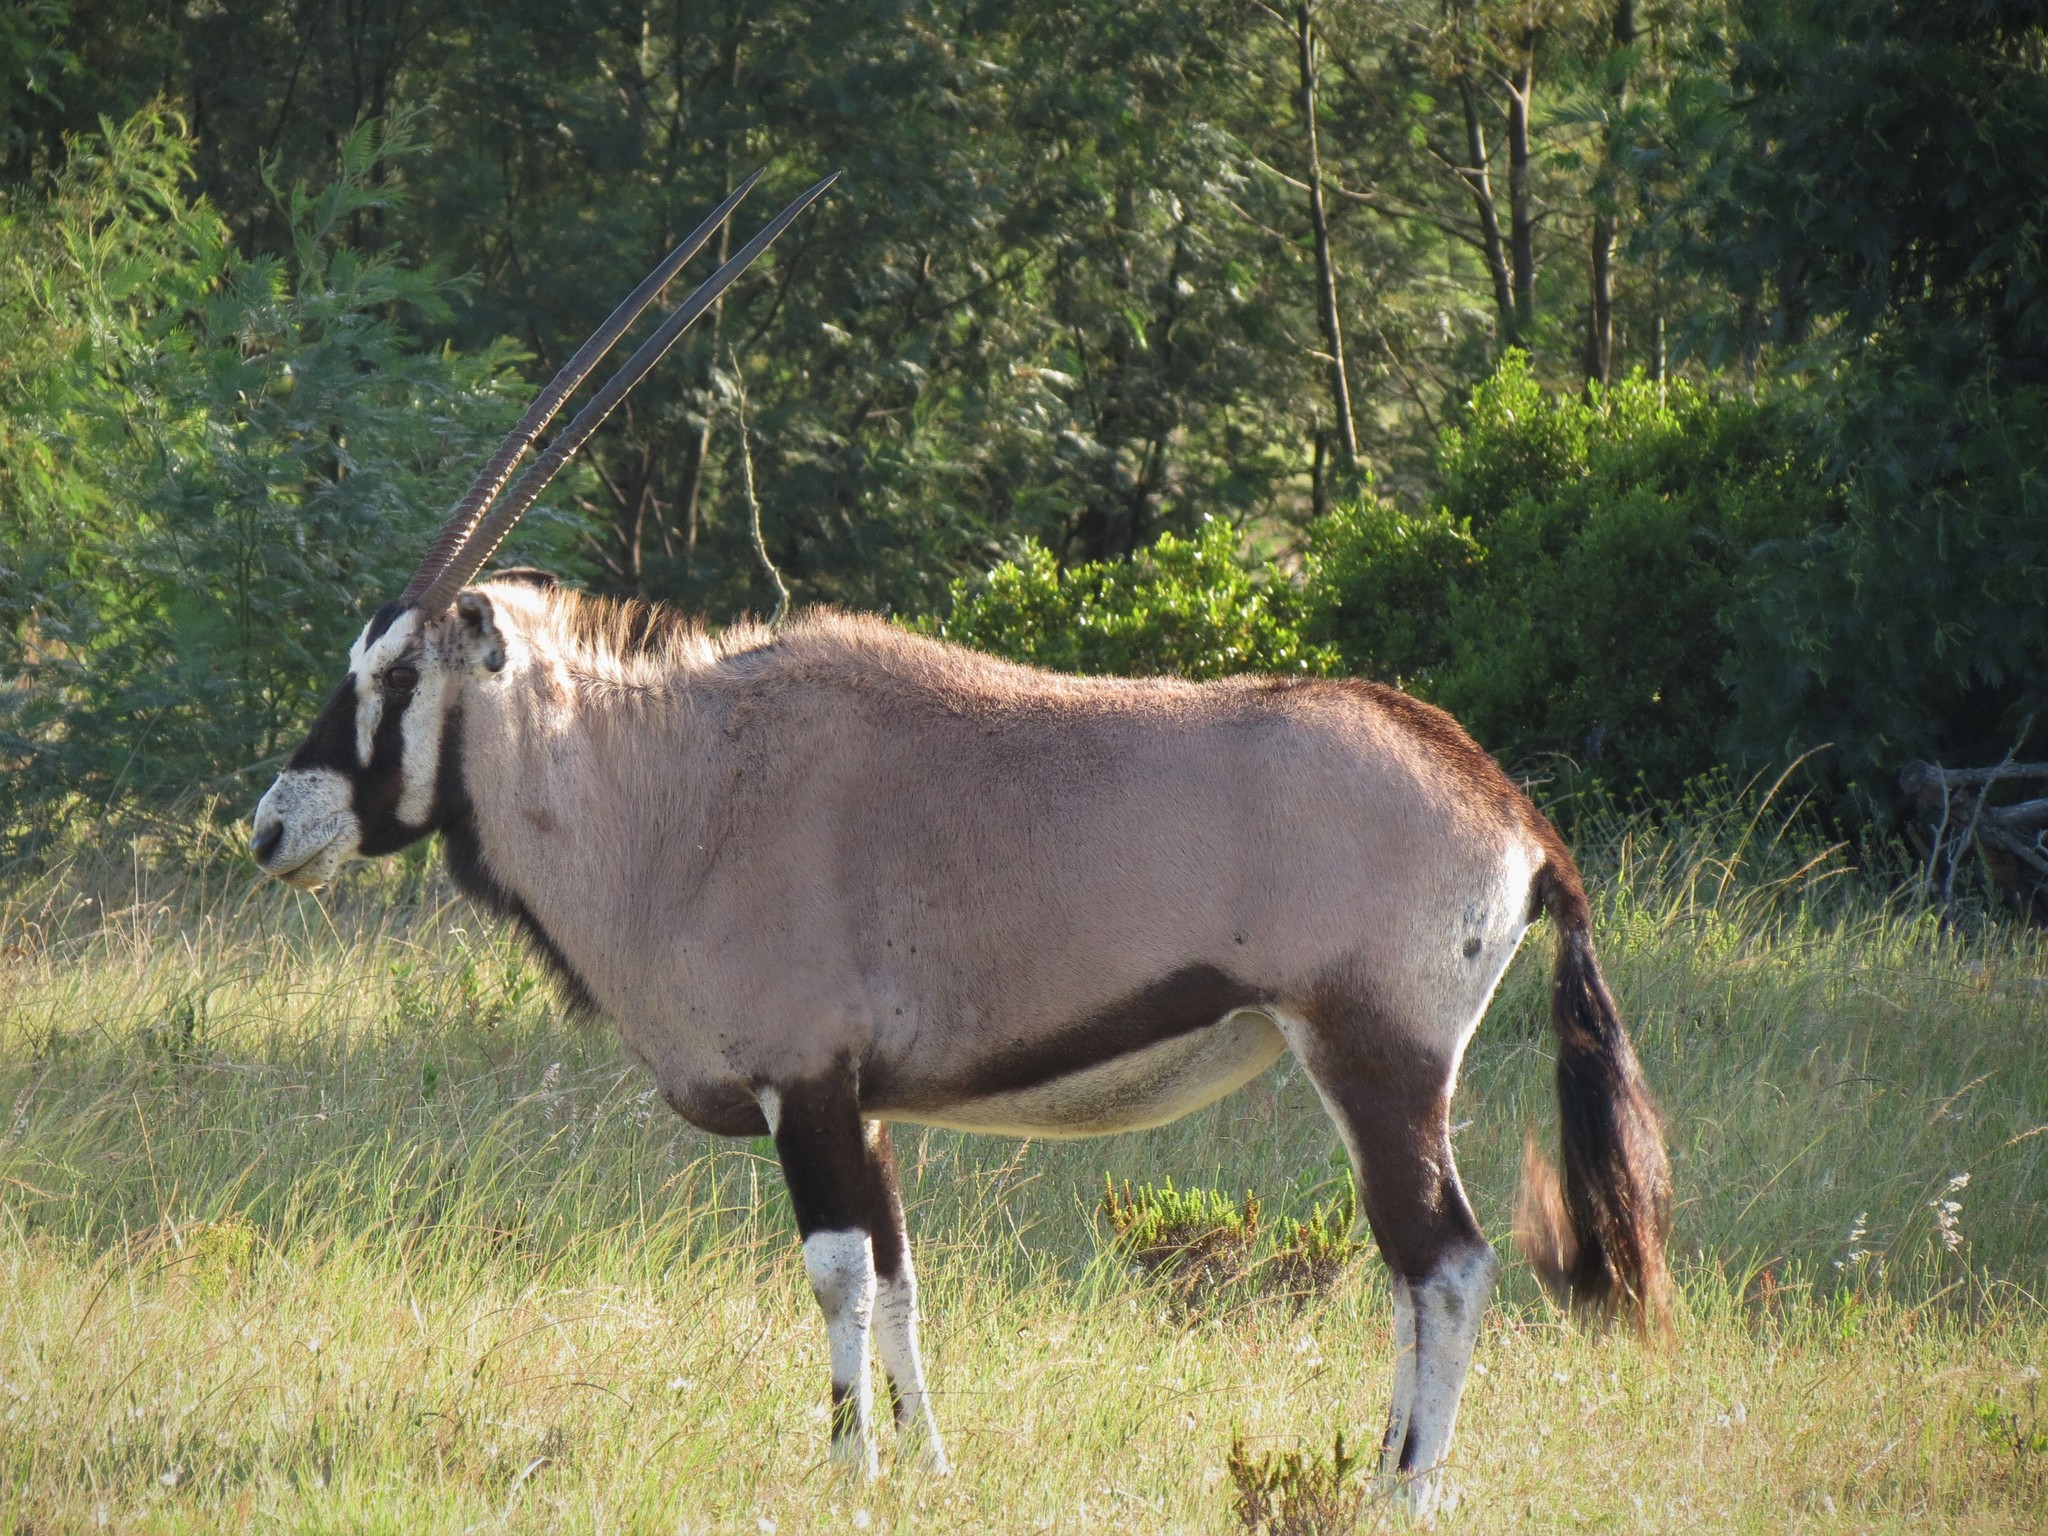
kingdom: Animalia
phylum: Chordata
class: Mammalia
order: Artiodactyla
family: Bovidae
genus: Oryx
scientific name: Oryx gazella
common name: Gemsbok
